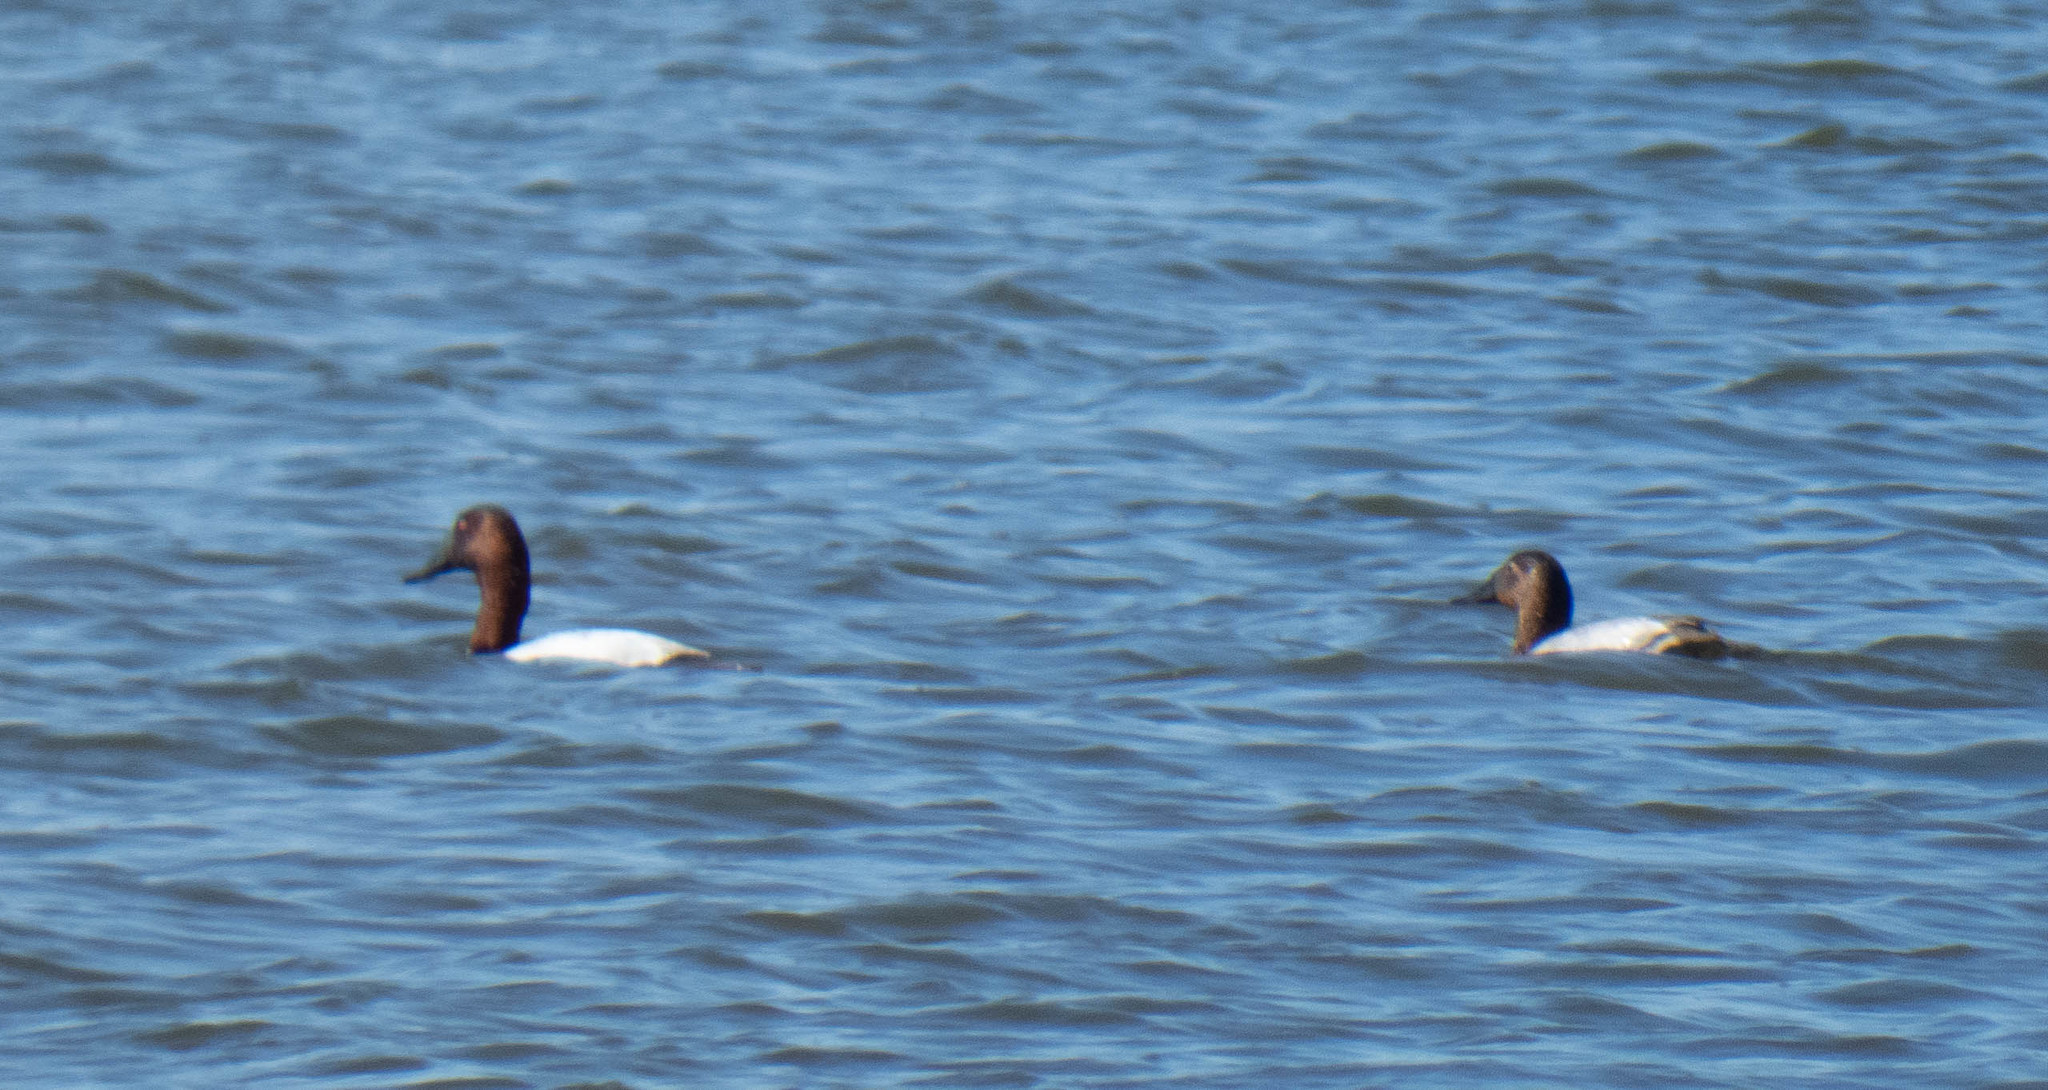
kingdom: Animalia
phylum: Chordata
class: Aves
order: Anseriformes
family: Anatidae
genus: Aythya
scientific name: Aythya valisineria
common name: Canvasback
